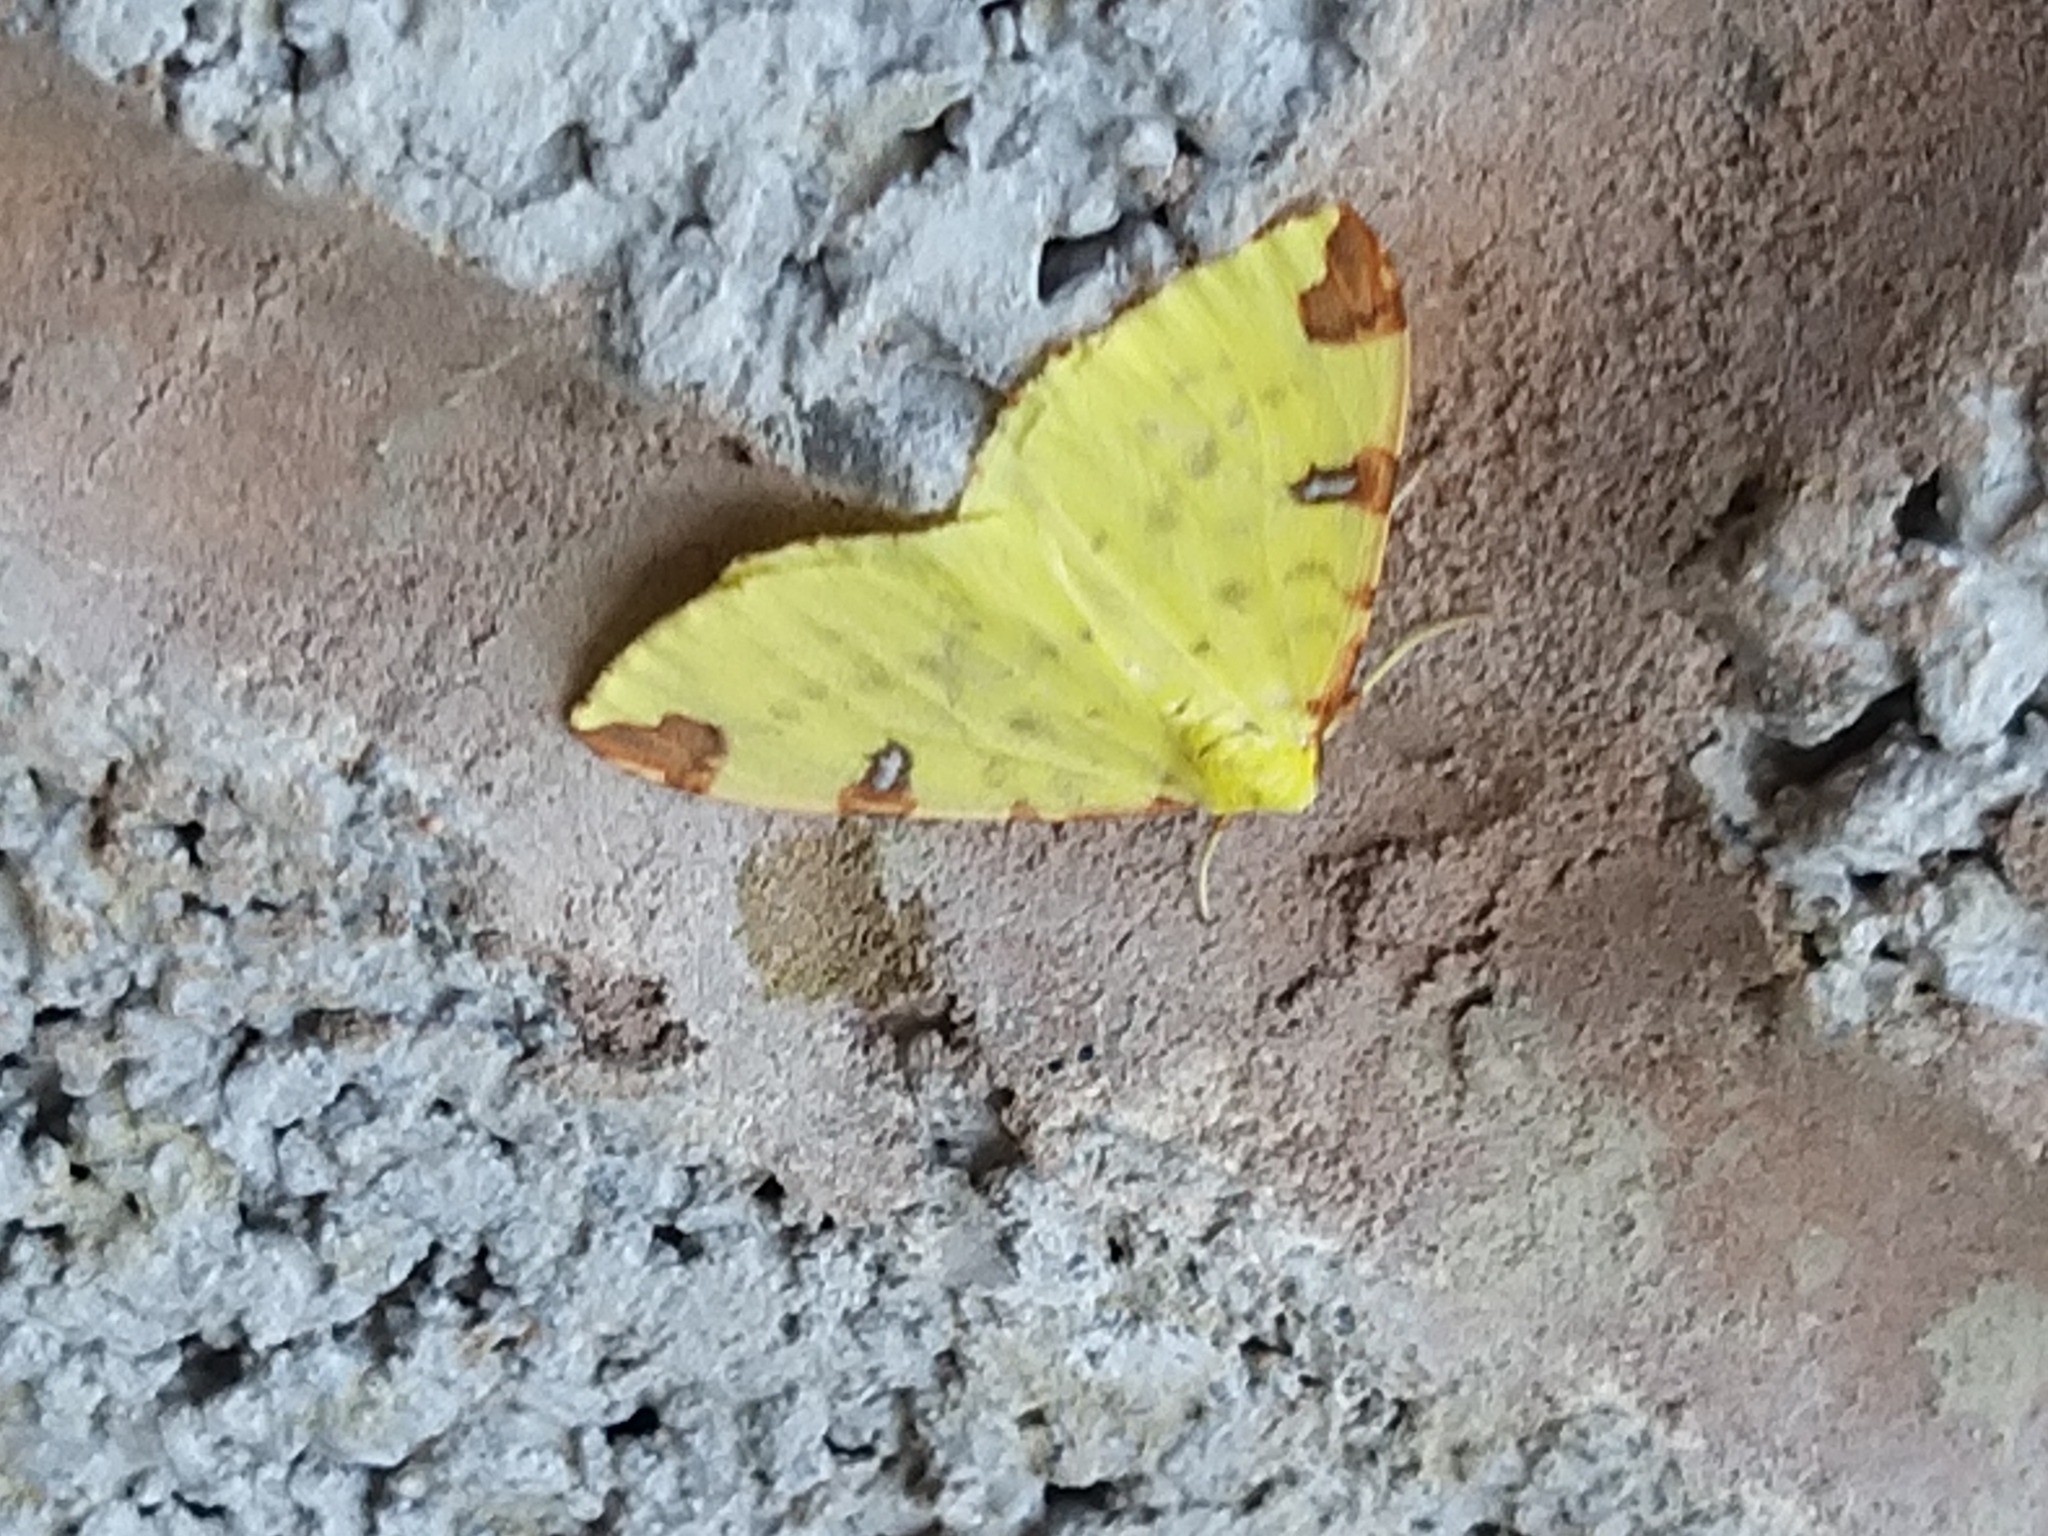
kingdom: Animalia
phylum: Arthropoda
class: Insecta
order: Lepidoptera
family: Geometridae
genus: Opisthograptis
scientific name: Opisthograptis luteolata
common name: Brimstone moth
